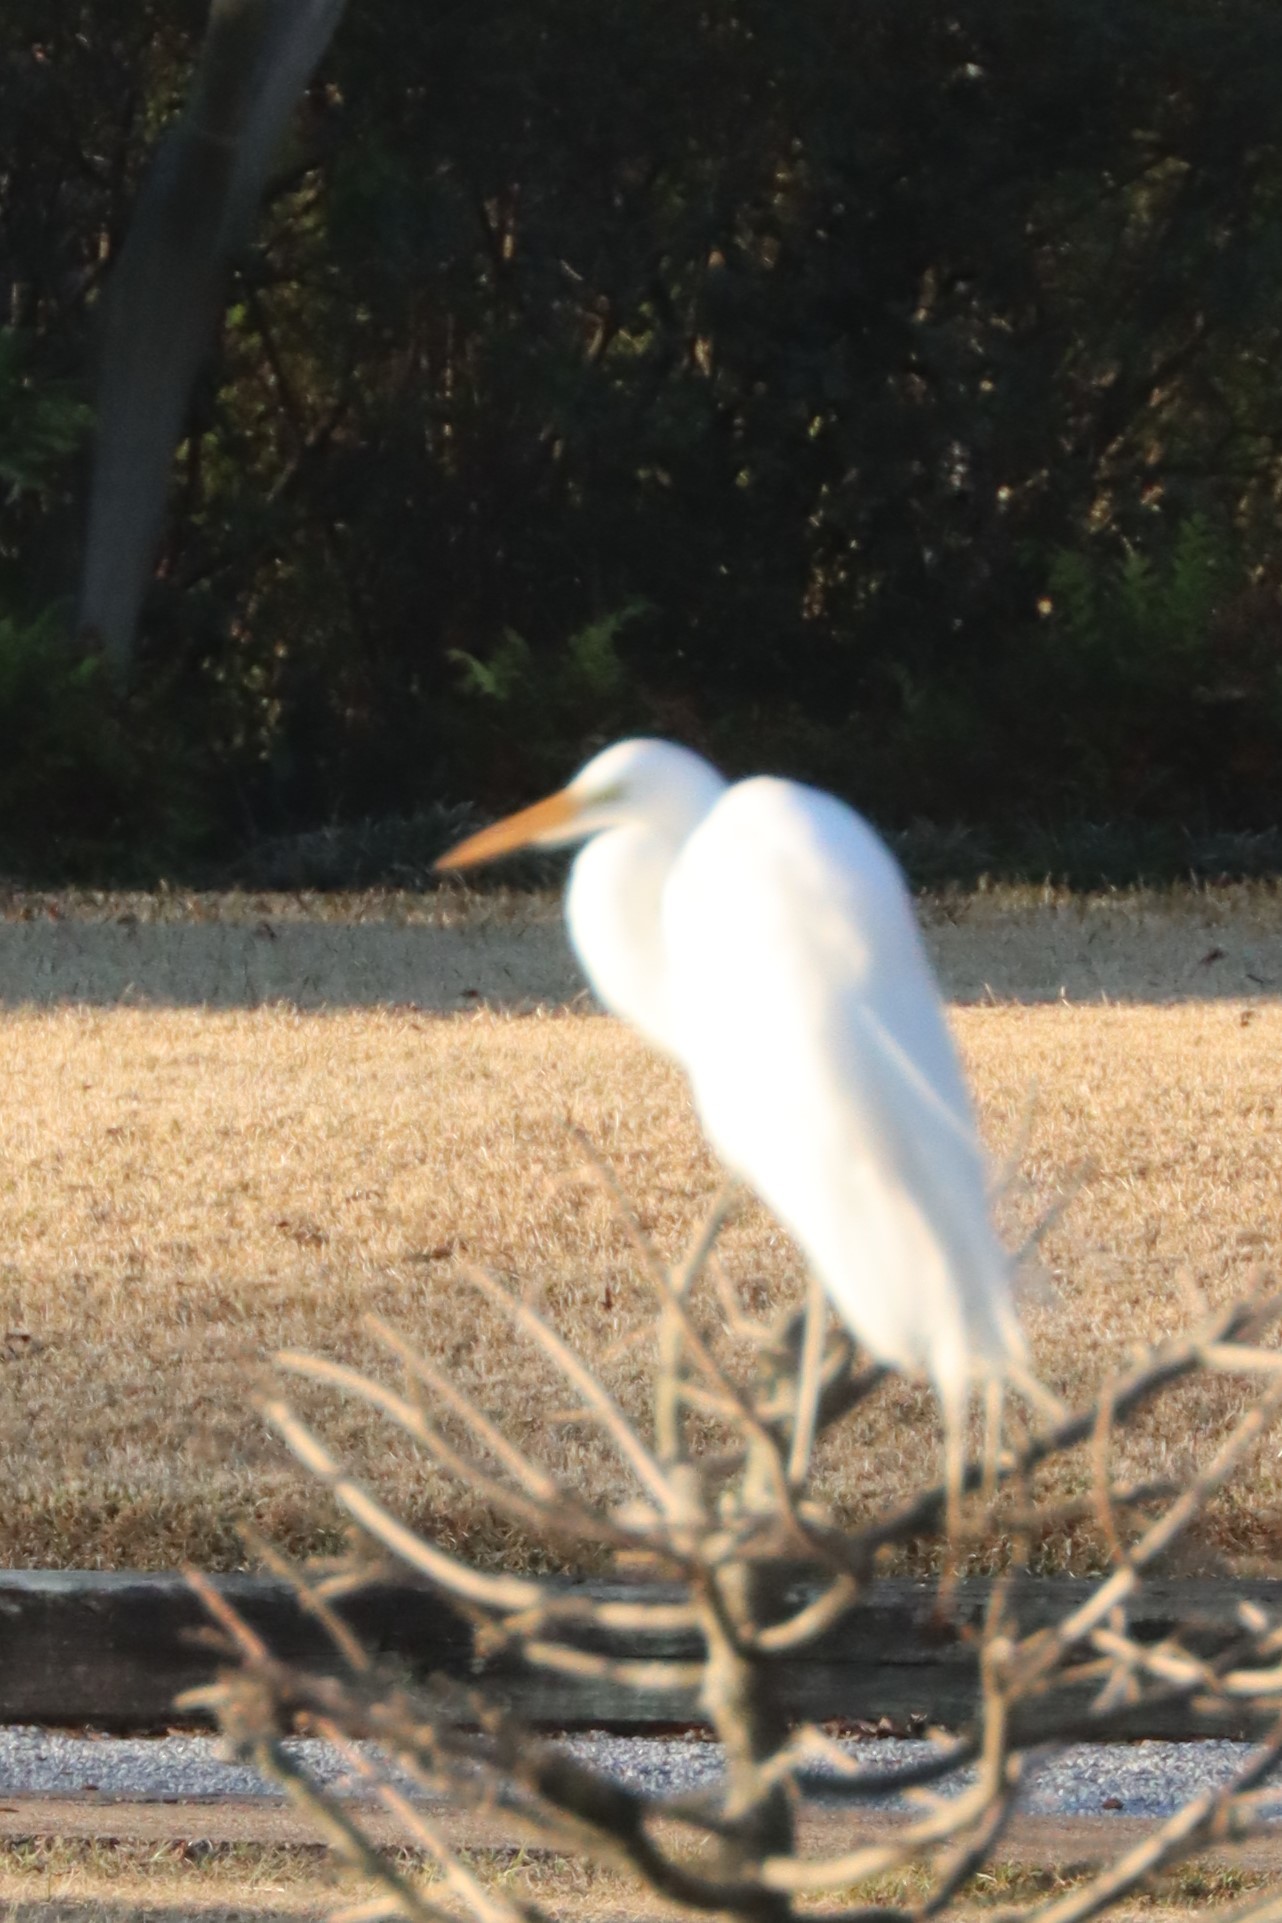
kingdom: Animalia
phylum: Chordata
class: Aves
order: Pelecaniformes
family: Ardeidae
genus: Ardea
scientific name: Ardea alba
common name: Great egret
